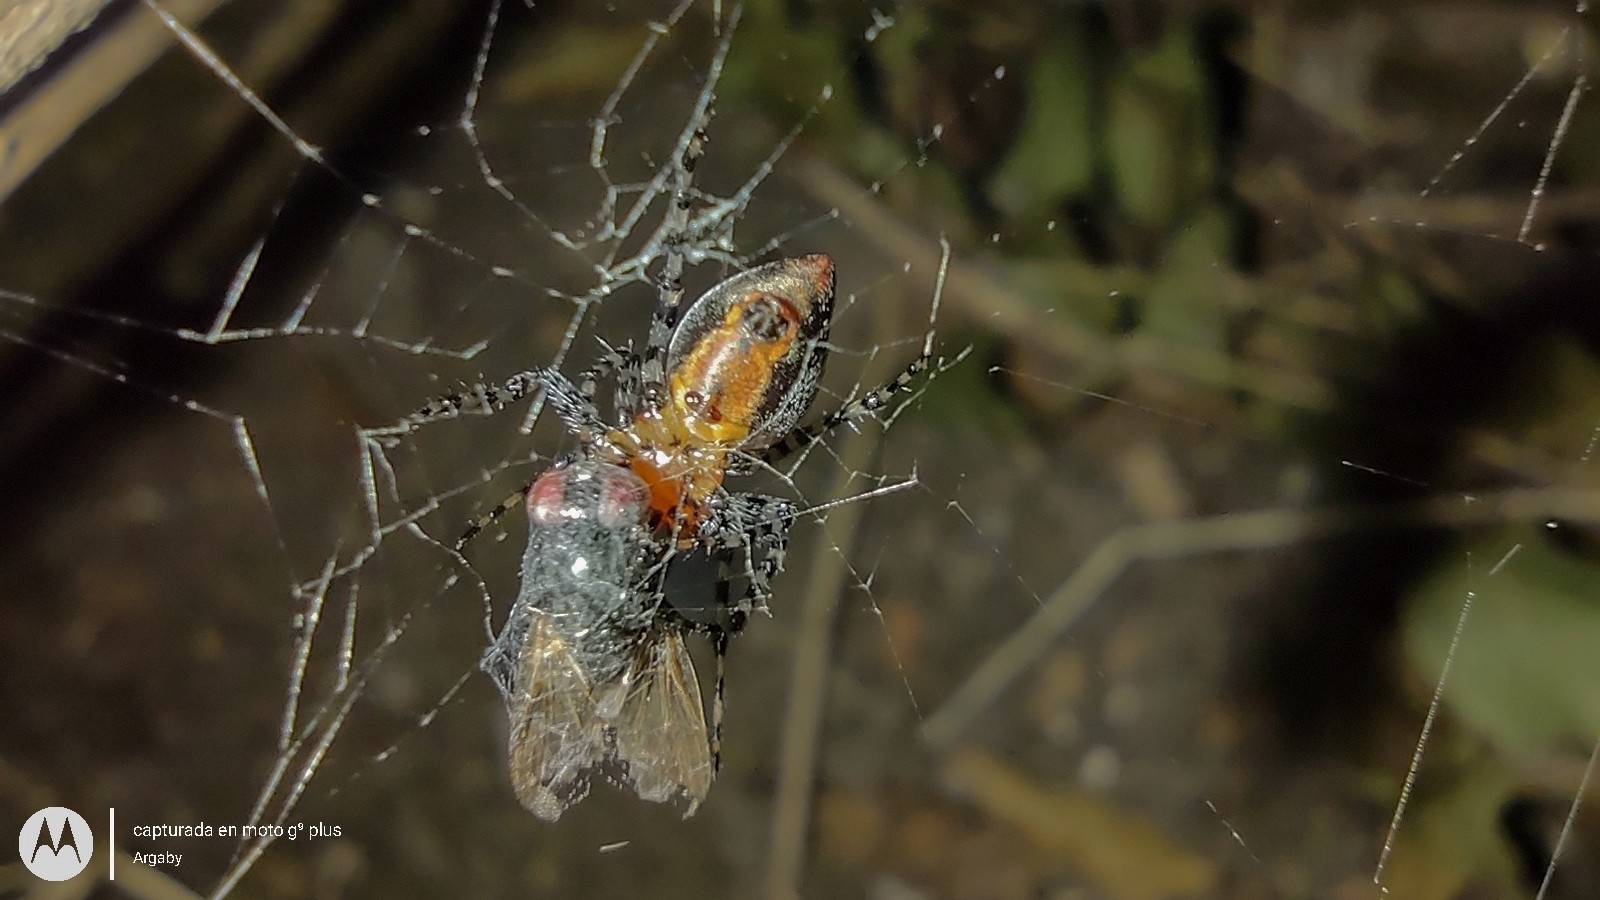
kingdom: Animalia
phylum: Arthropoda
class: Arachnida
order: Araneae
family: Araneidae
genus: Alpaida
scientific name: Alpaida gallardoi
